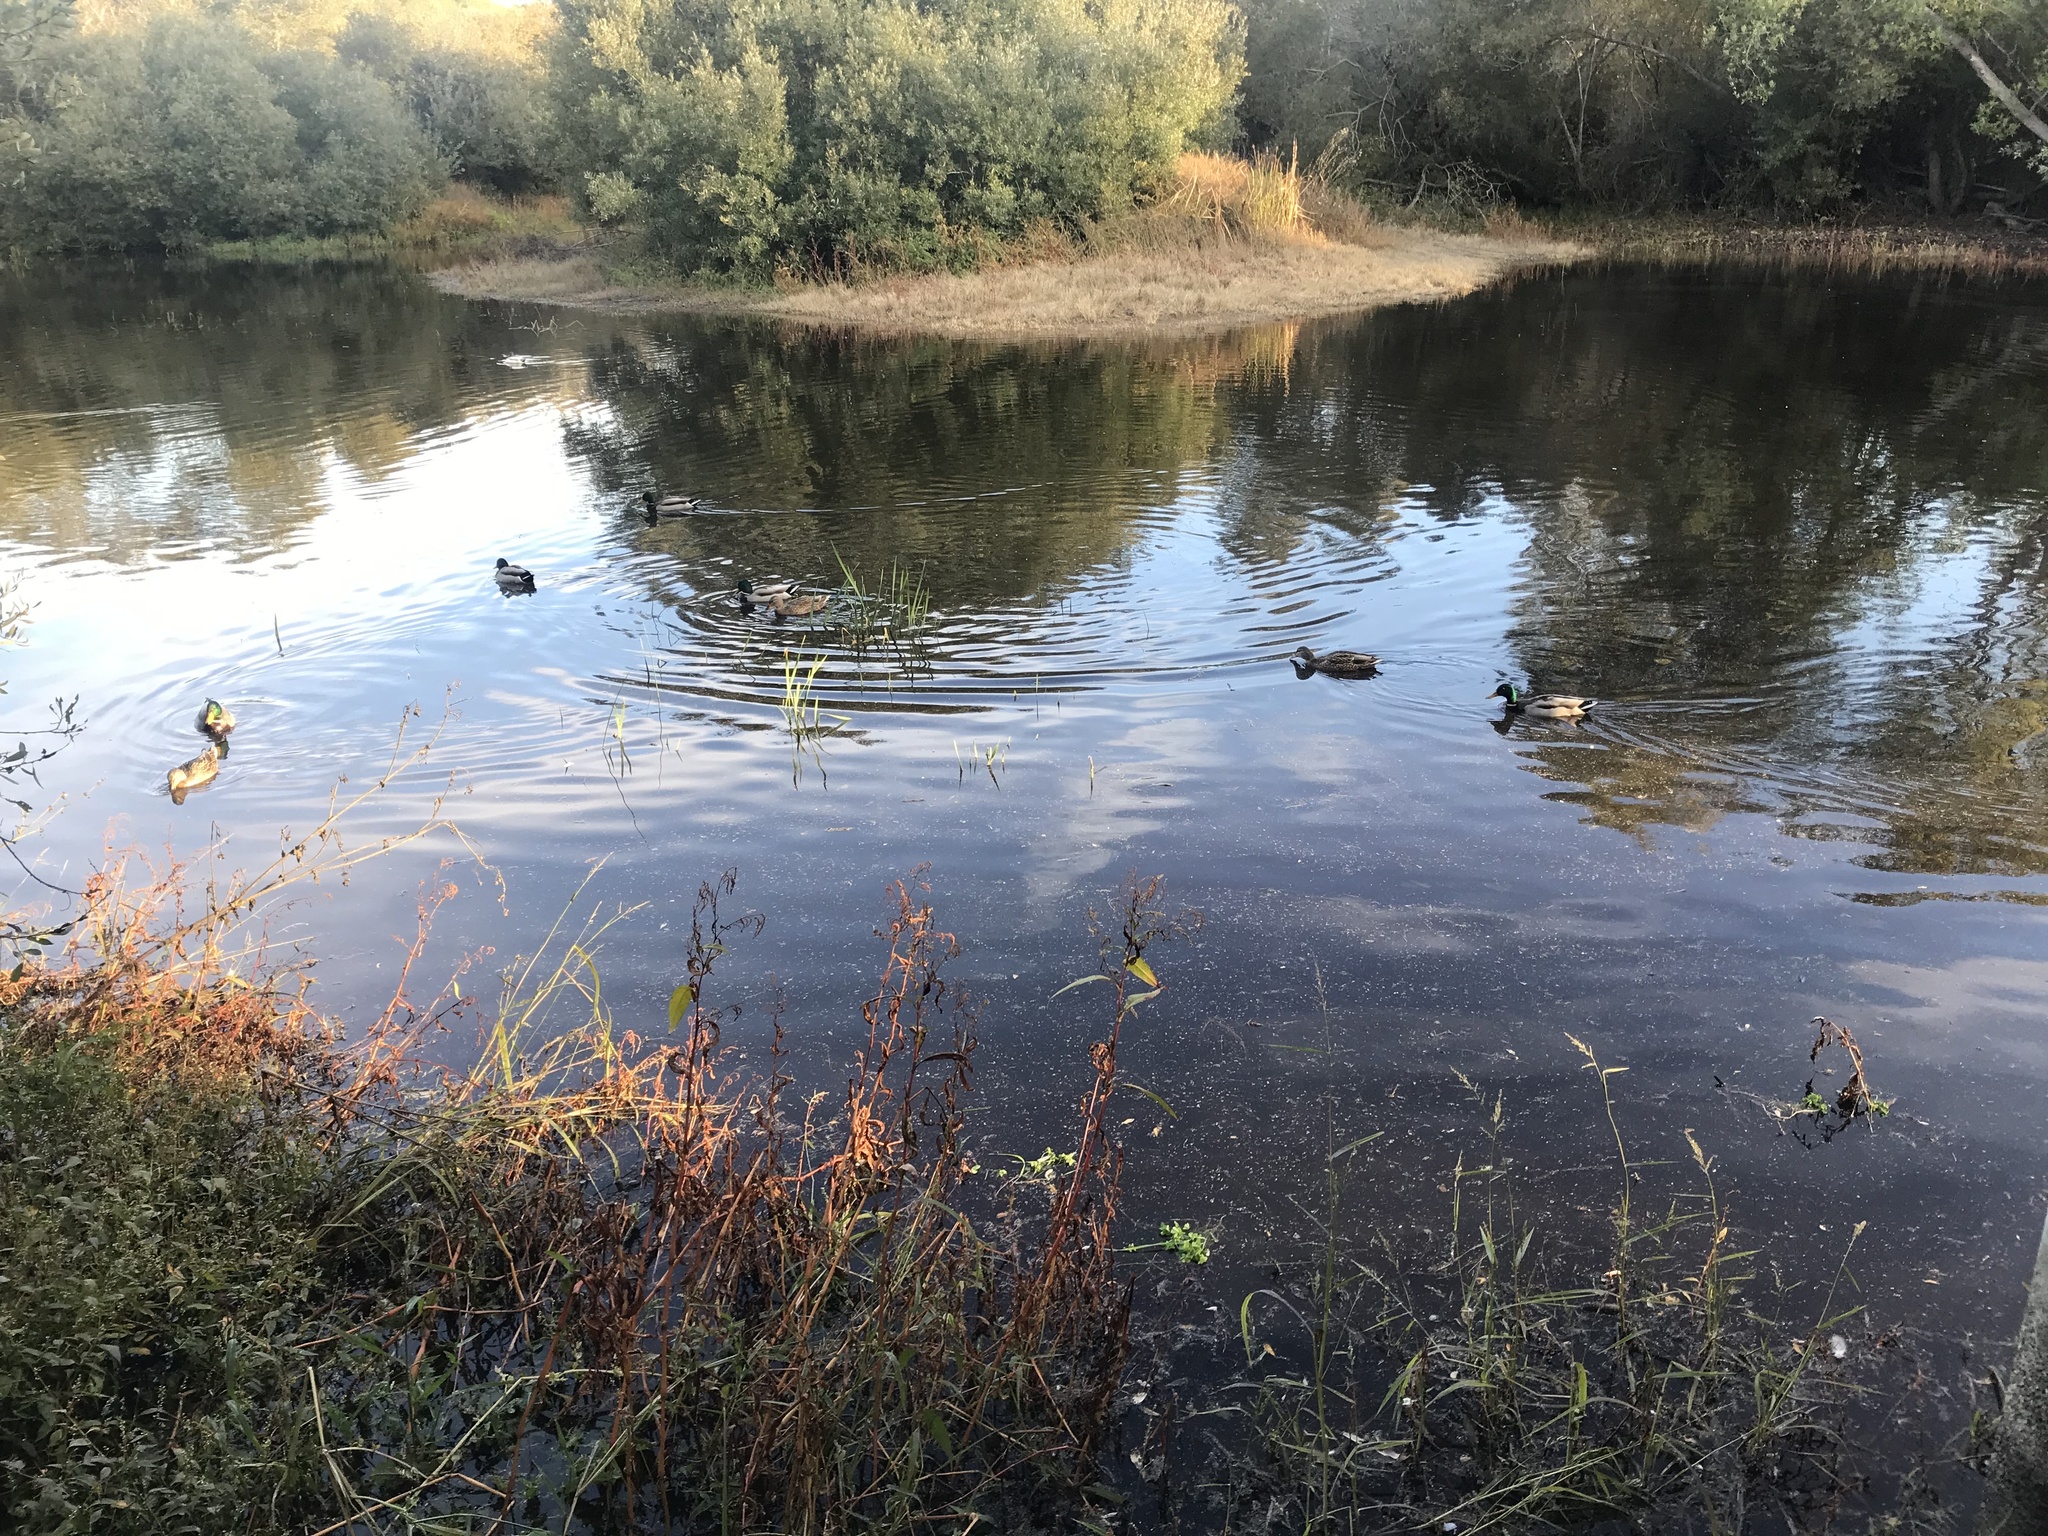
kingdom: Animalia
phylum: Chordata
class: Aves
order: Anseriformes
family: Anatidae
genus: Anas
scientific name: Anas platyrhynchos
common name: Mallard
